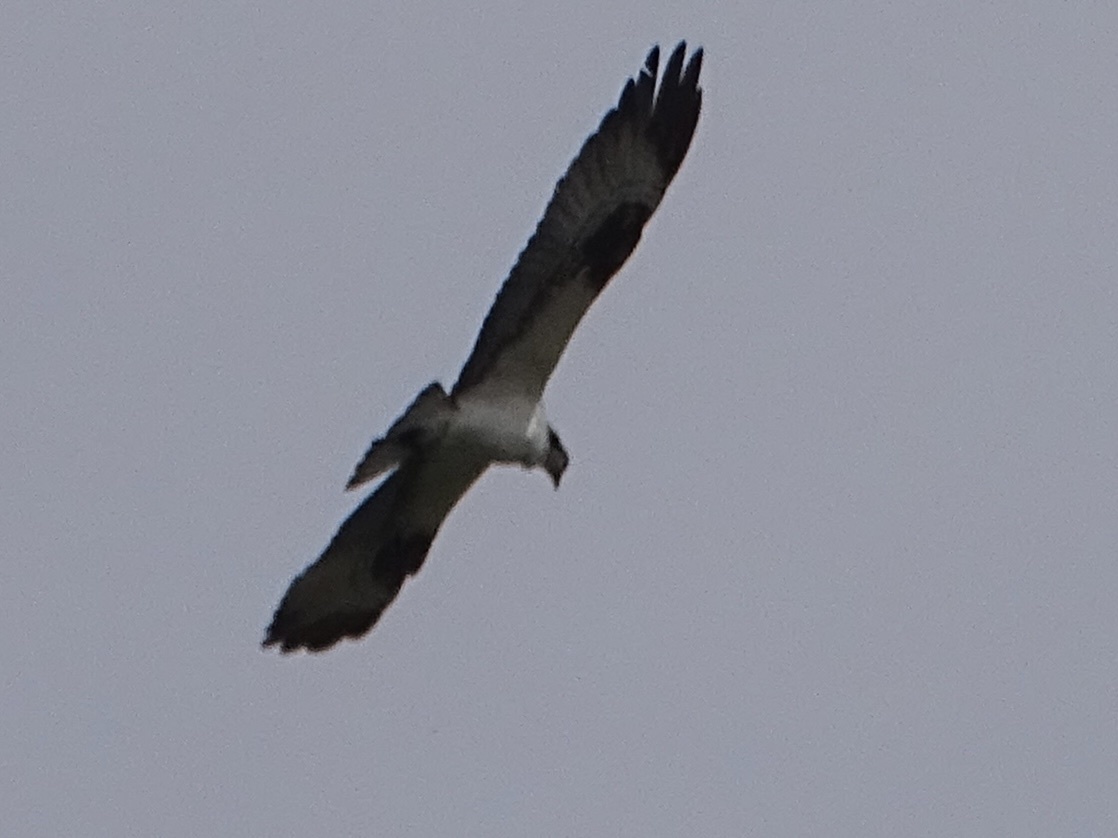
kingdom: Animalia
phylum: Chordata
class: Aves
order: Accipitriformes
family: Pandionidae
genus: Pandion
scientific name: Pandion haliaetus
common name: Osprey
